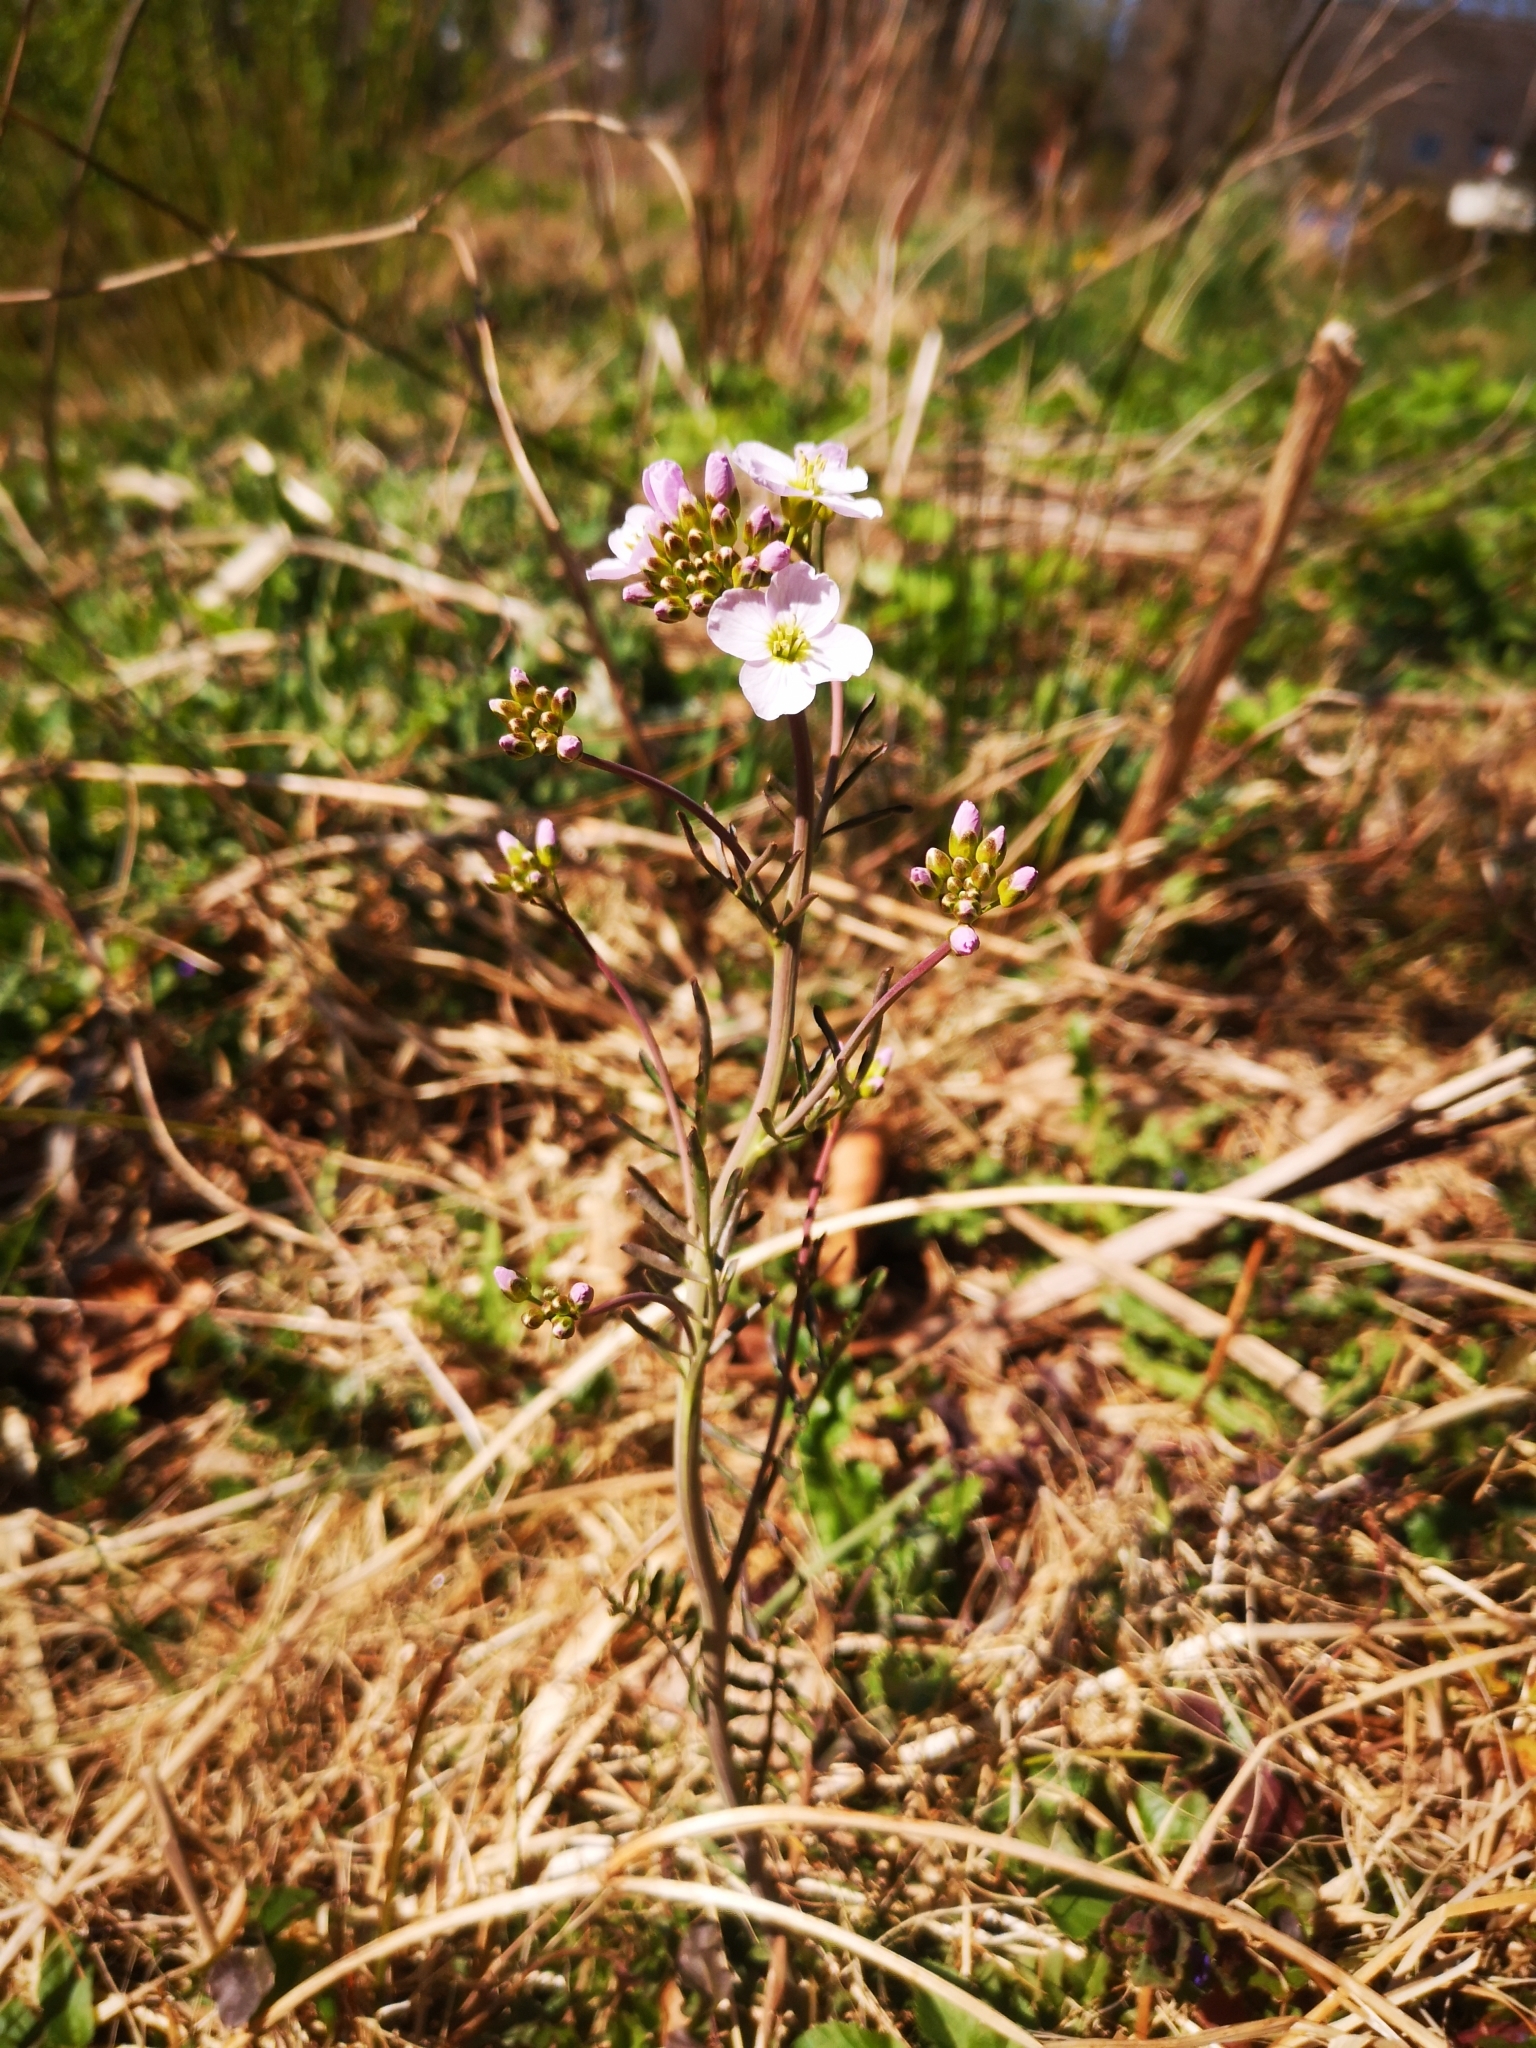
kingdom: Plantae
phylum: Tracheophyta
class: Magnoliopsida
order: Brassicales
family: Brassicaceae
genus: Cardamine
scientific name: Cardamine pratensis
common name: Cuckoo flower
